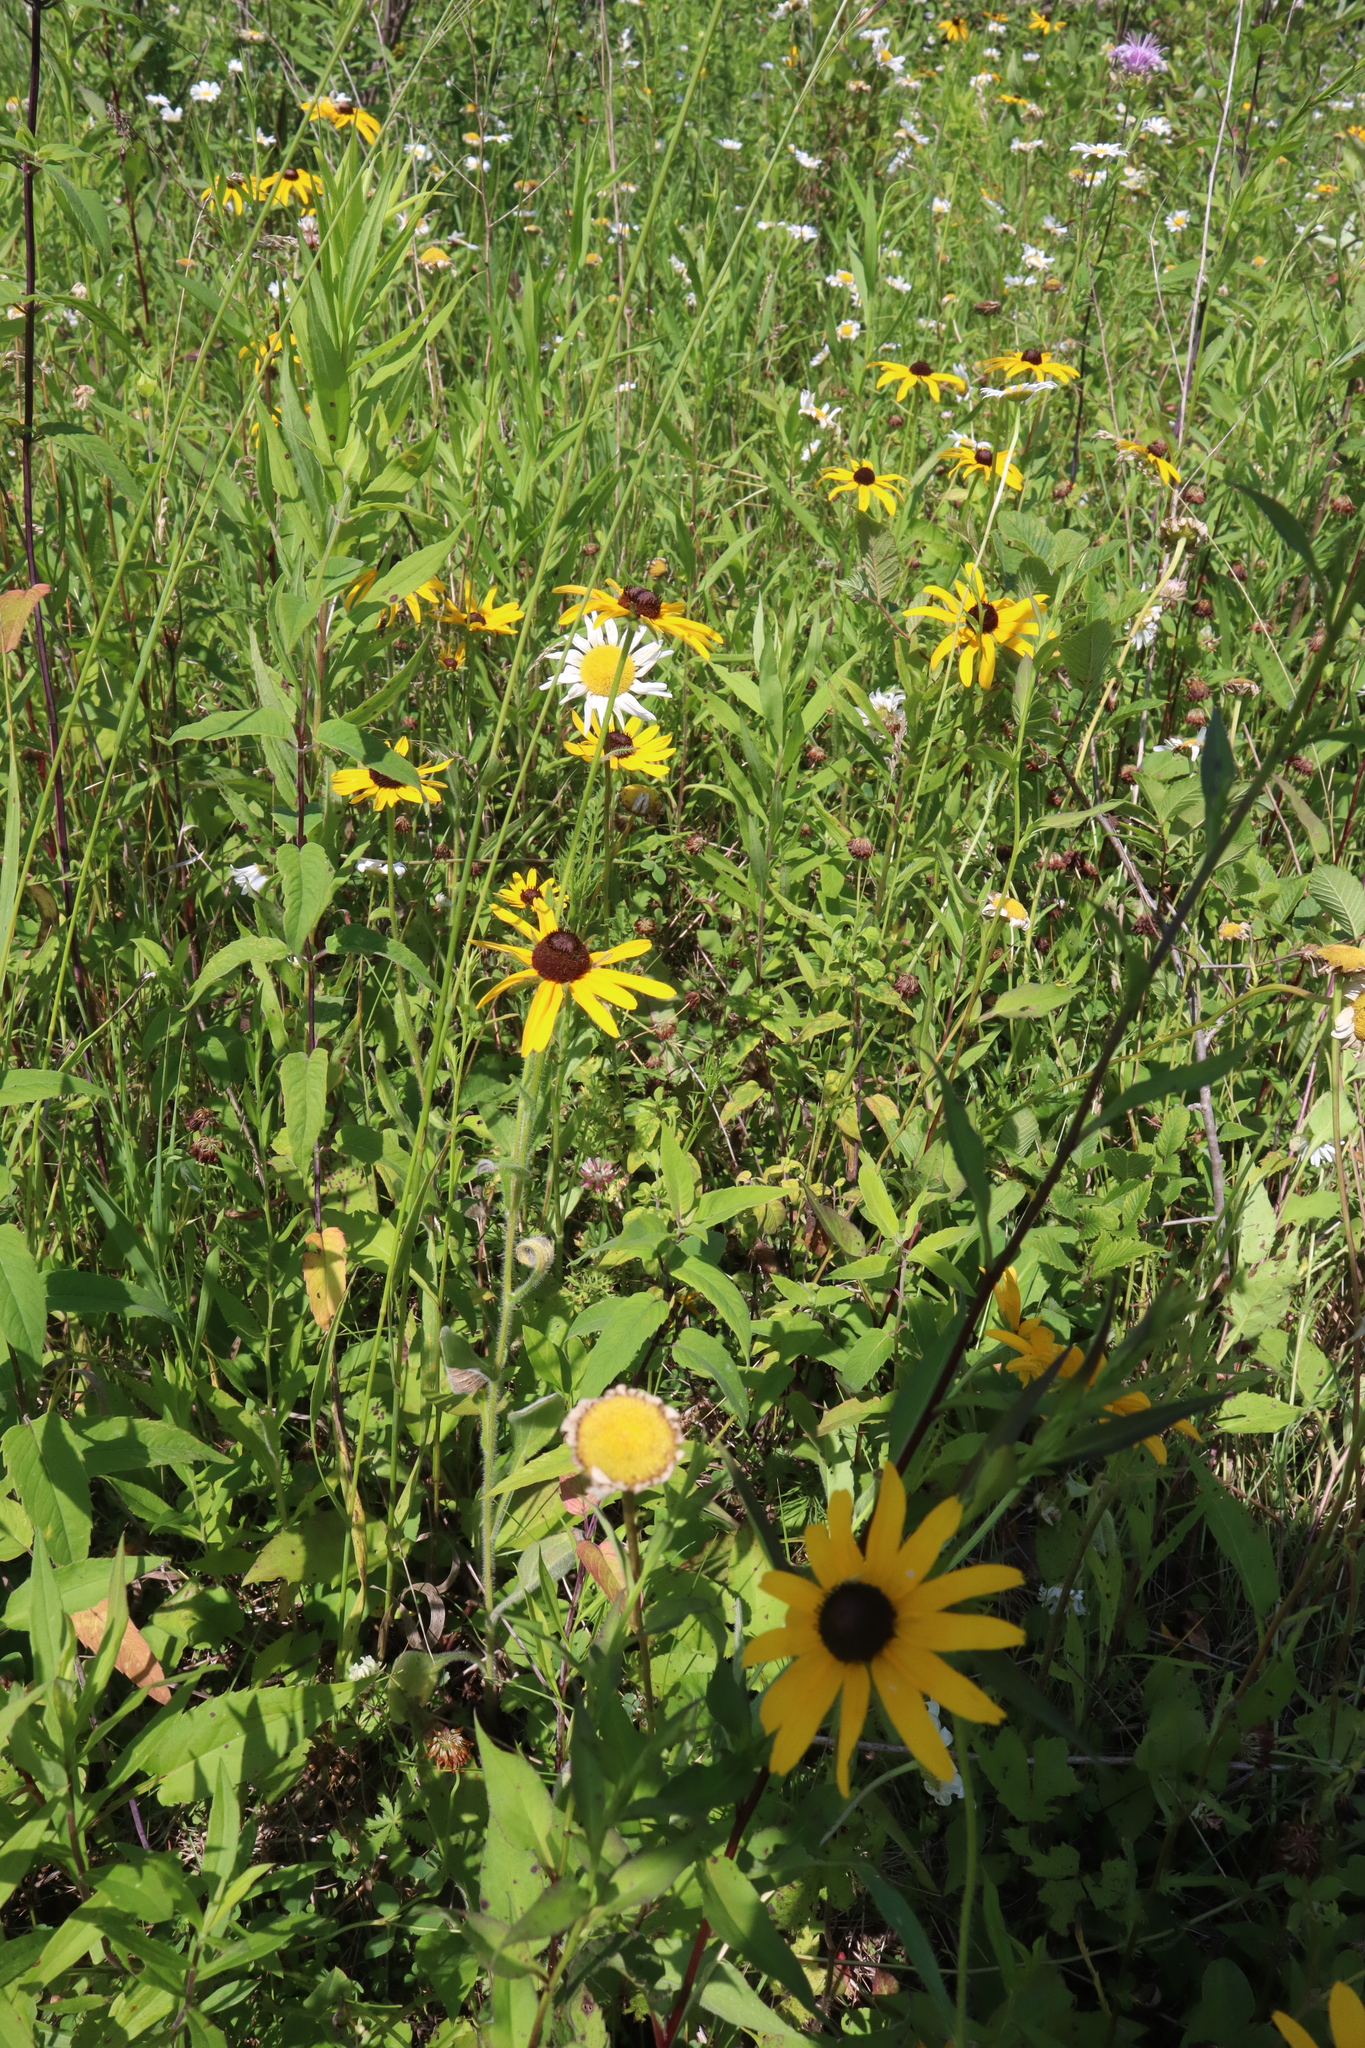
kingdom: Plantae
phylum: Tracheophyta
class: Magnoliopsida
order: Asterales
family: Asteraceae
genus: Rudbeckia
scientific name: Rudbeckia hirta
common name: Black-eyed-susan
